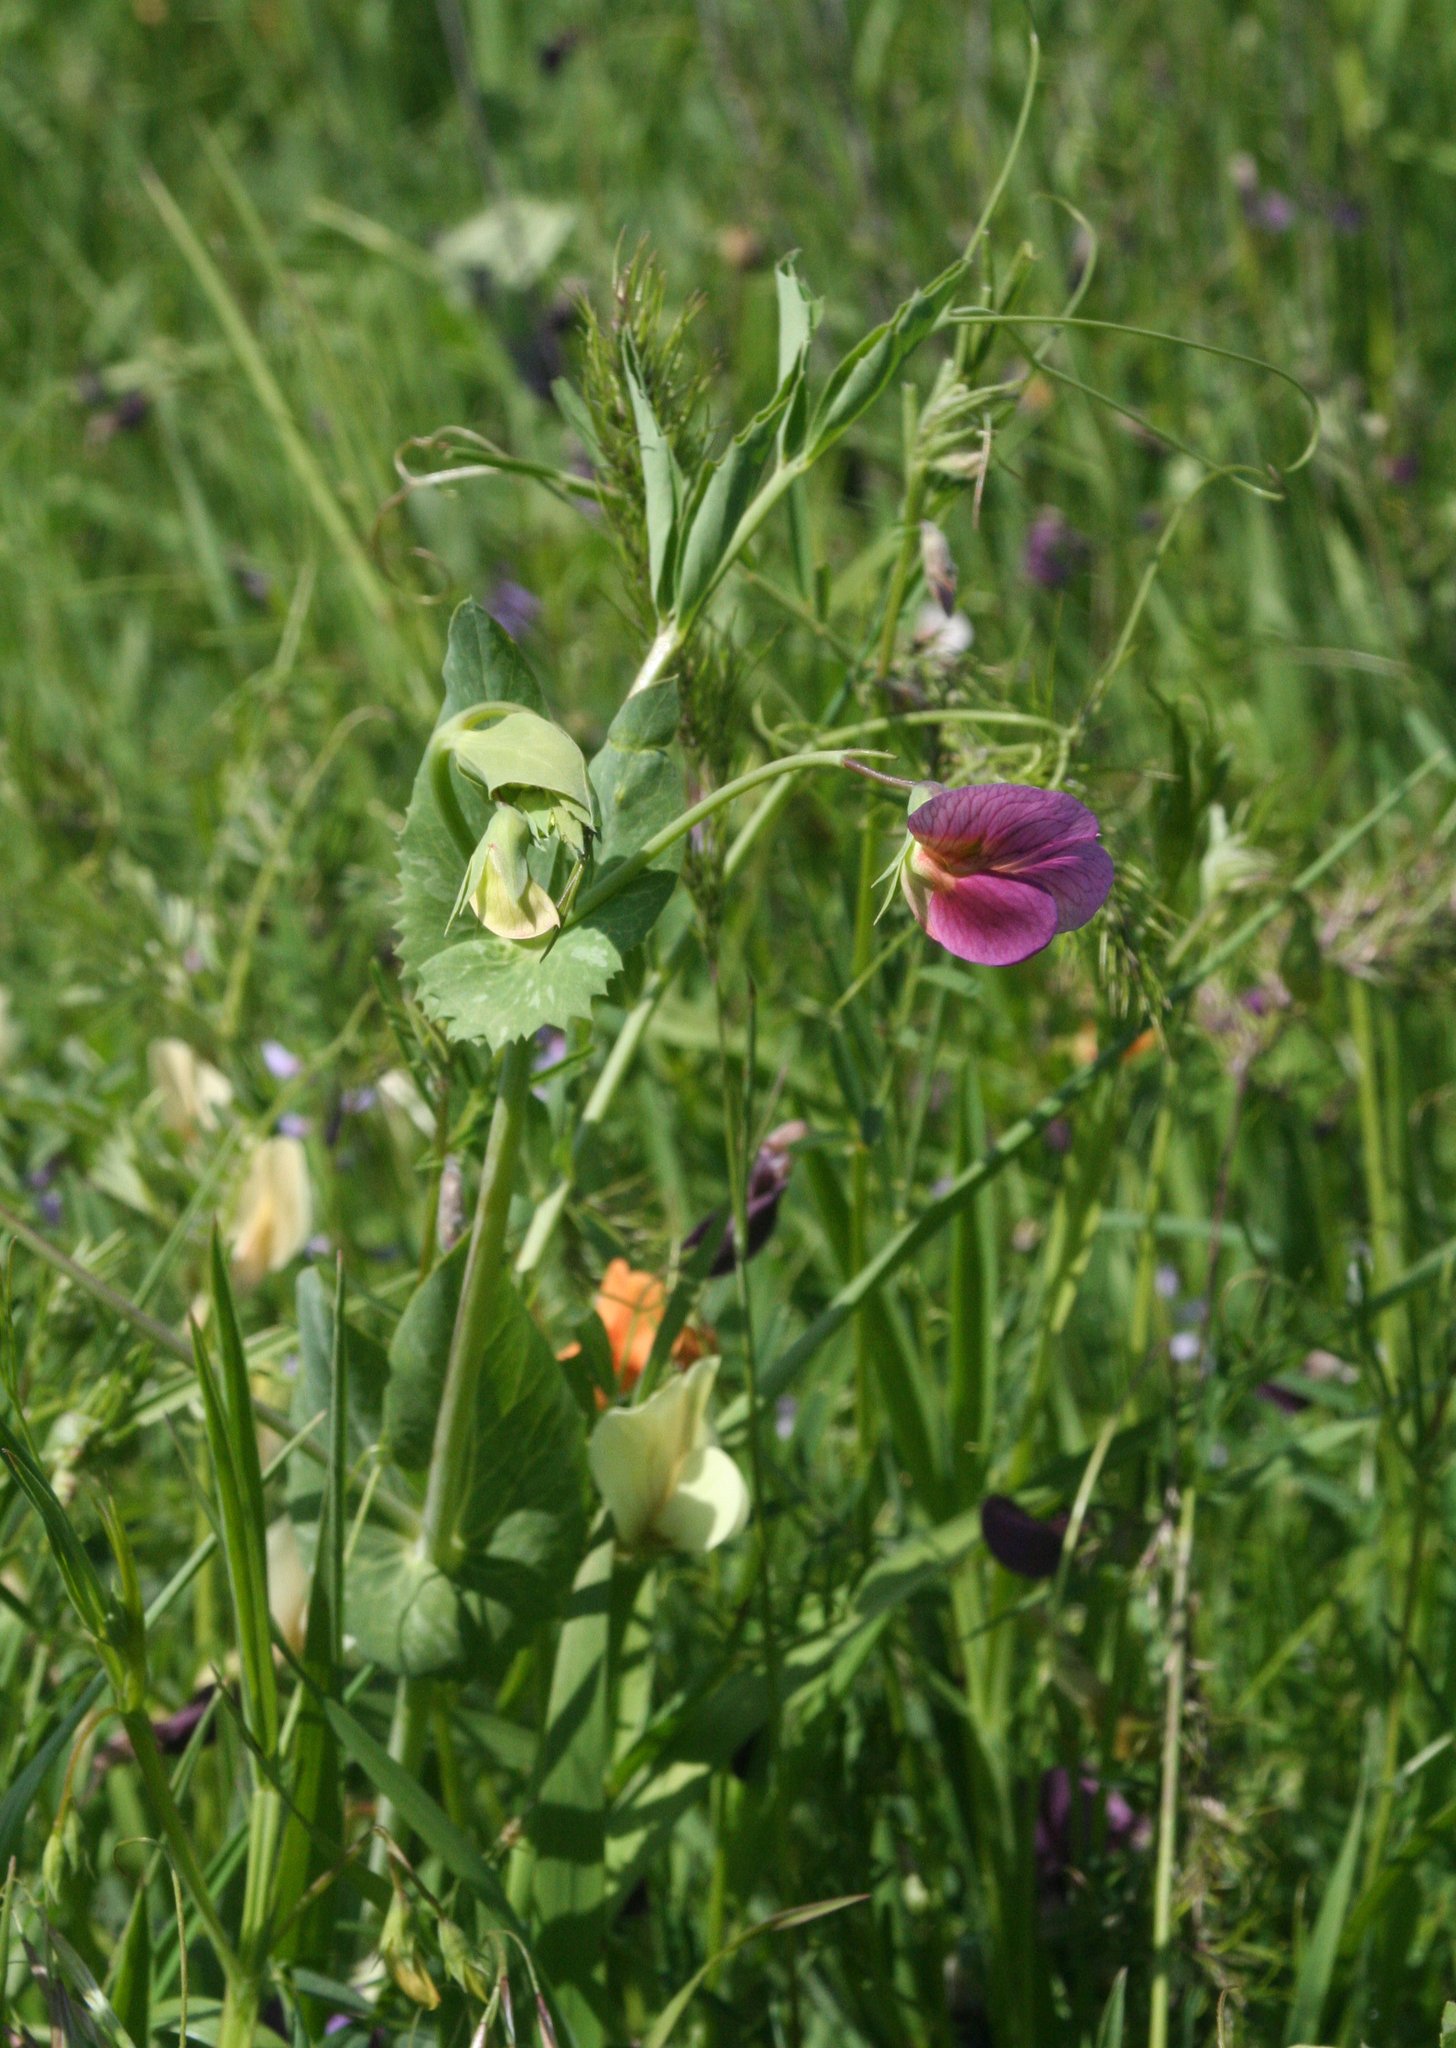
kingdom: Plantae
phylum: Tracheophyta
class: Magnoliopsida
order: Fabales
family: Fabaceae
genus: Lathyrus
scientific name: Lathyrus oleraceus
